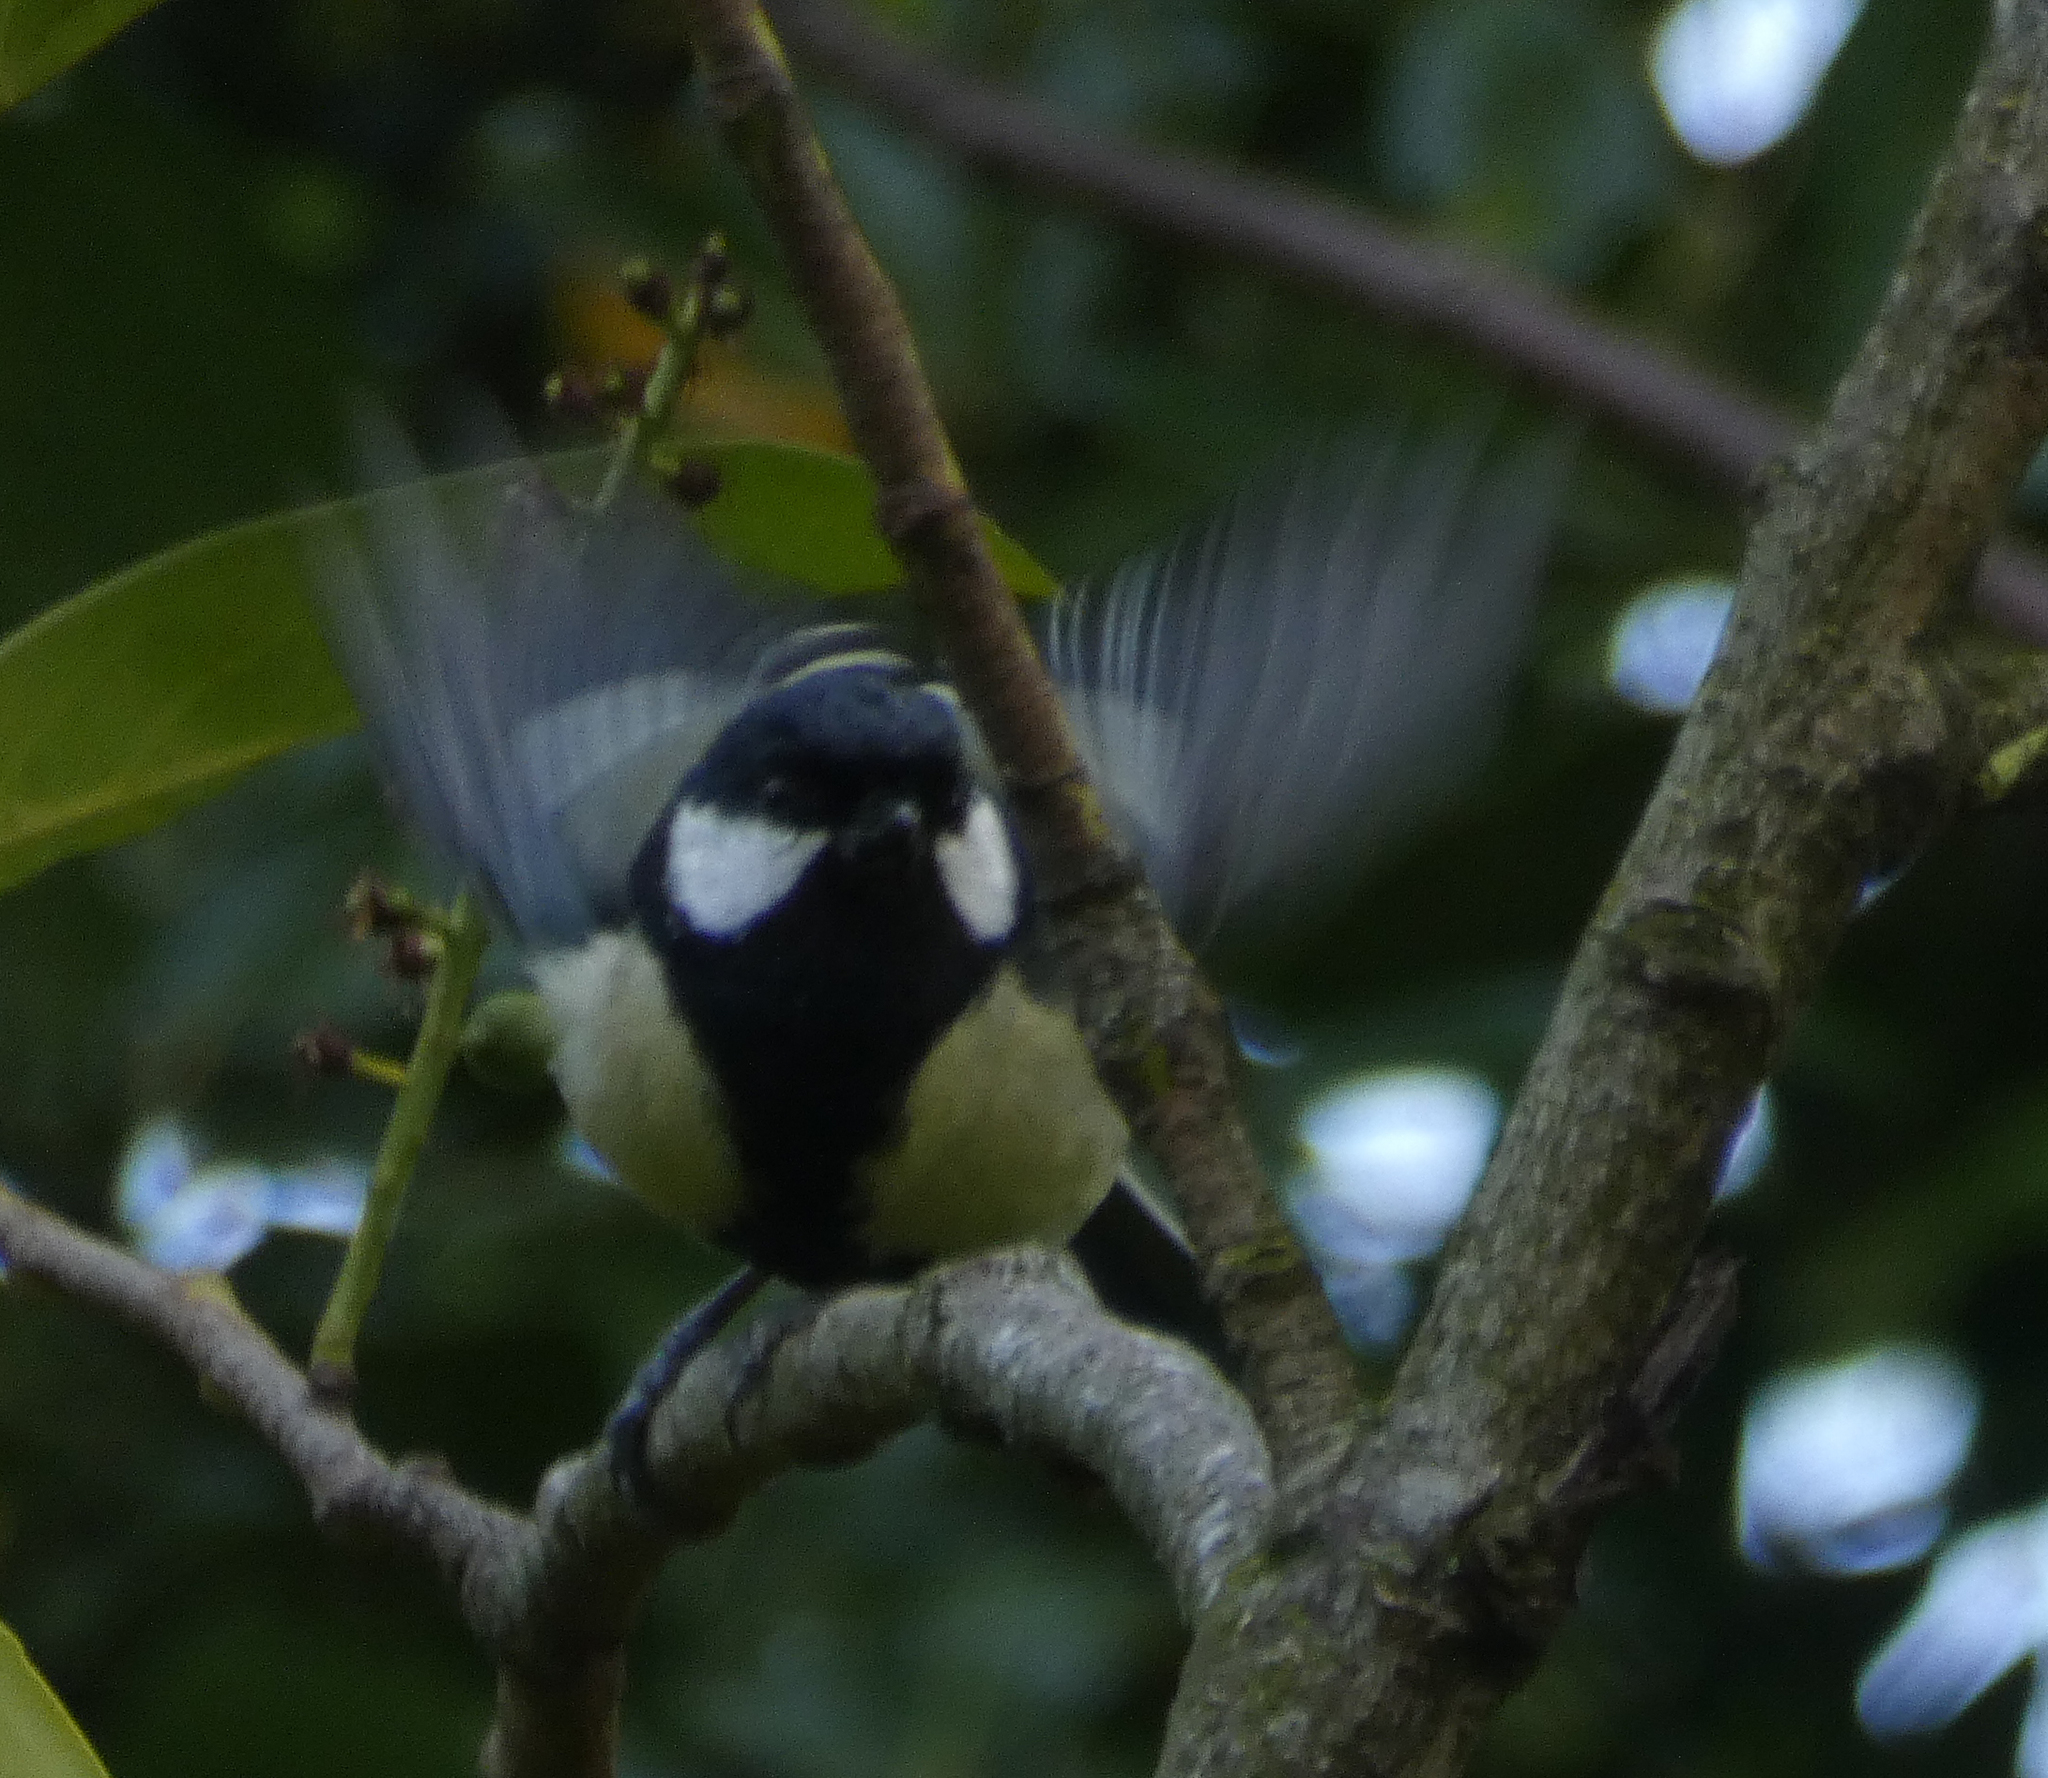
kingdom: Animalia
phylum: Chordata
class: Aves
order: Passeriformes
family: Paridae
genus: Parus
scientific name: Parus major
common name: Great tit
